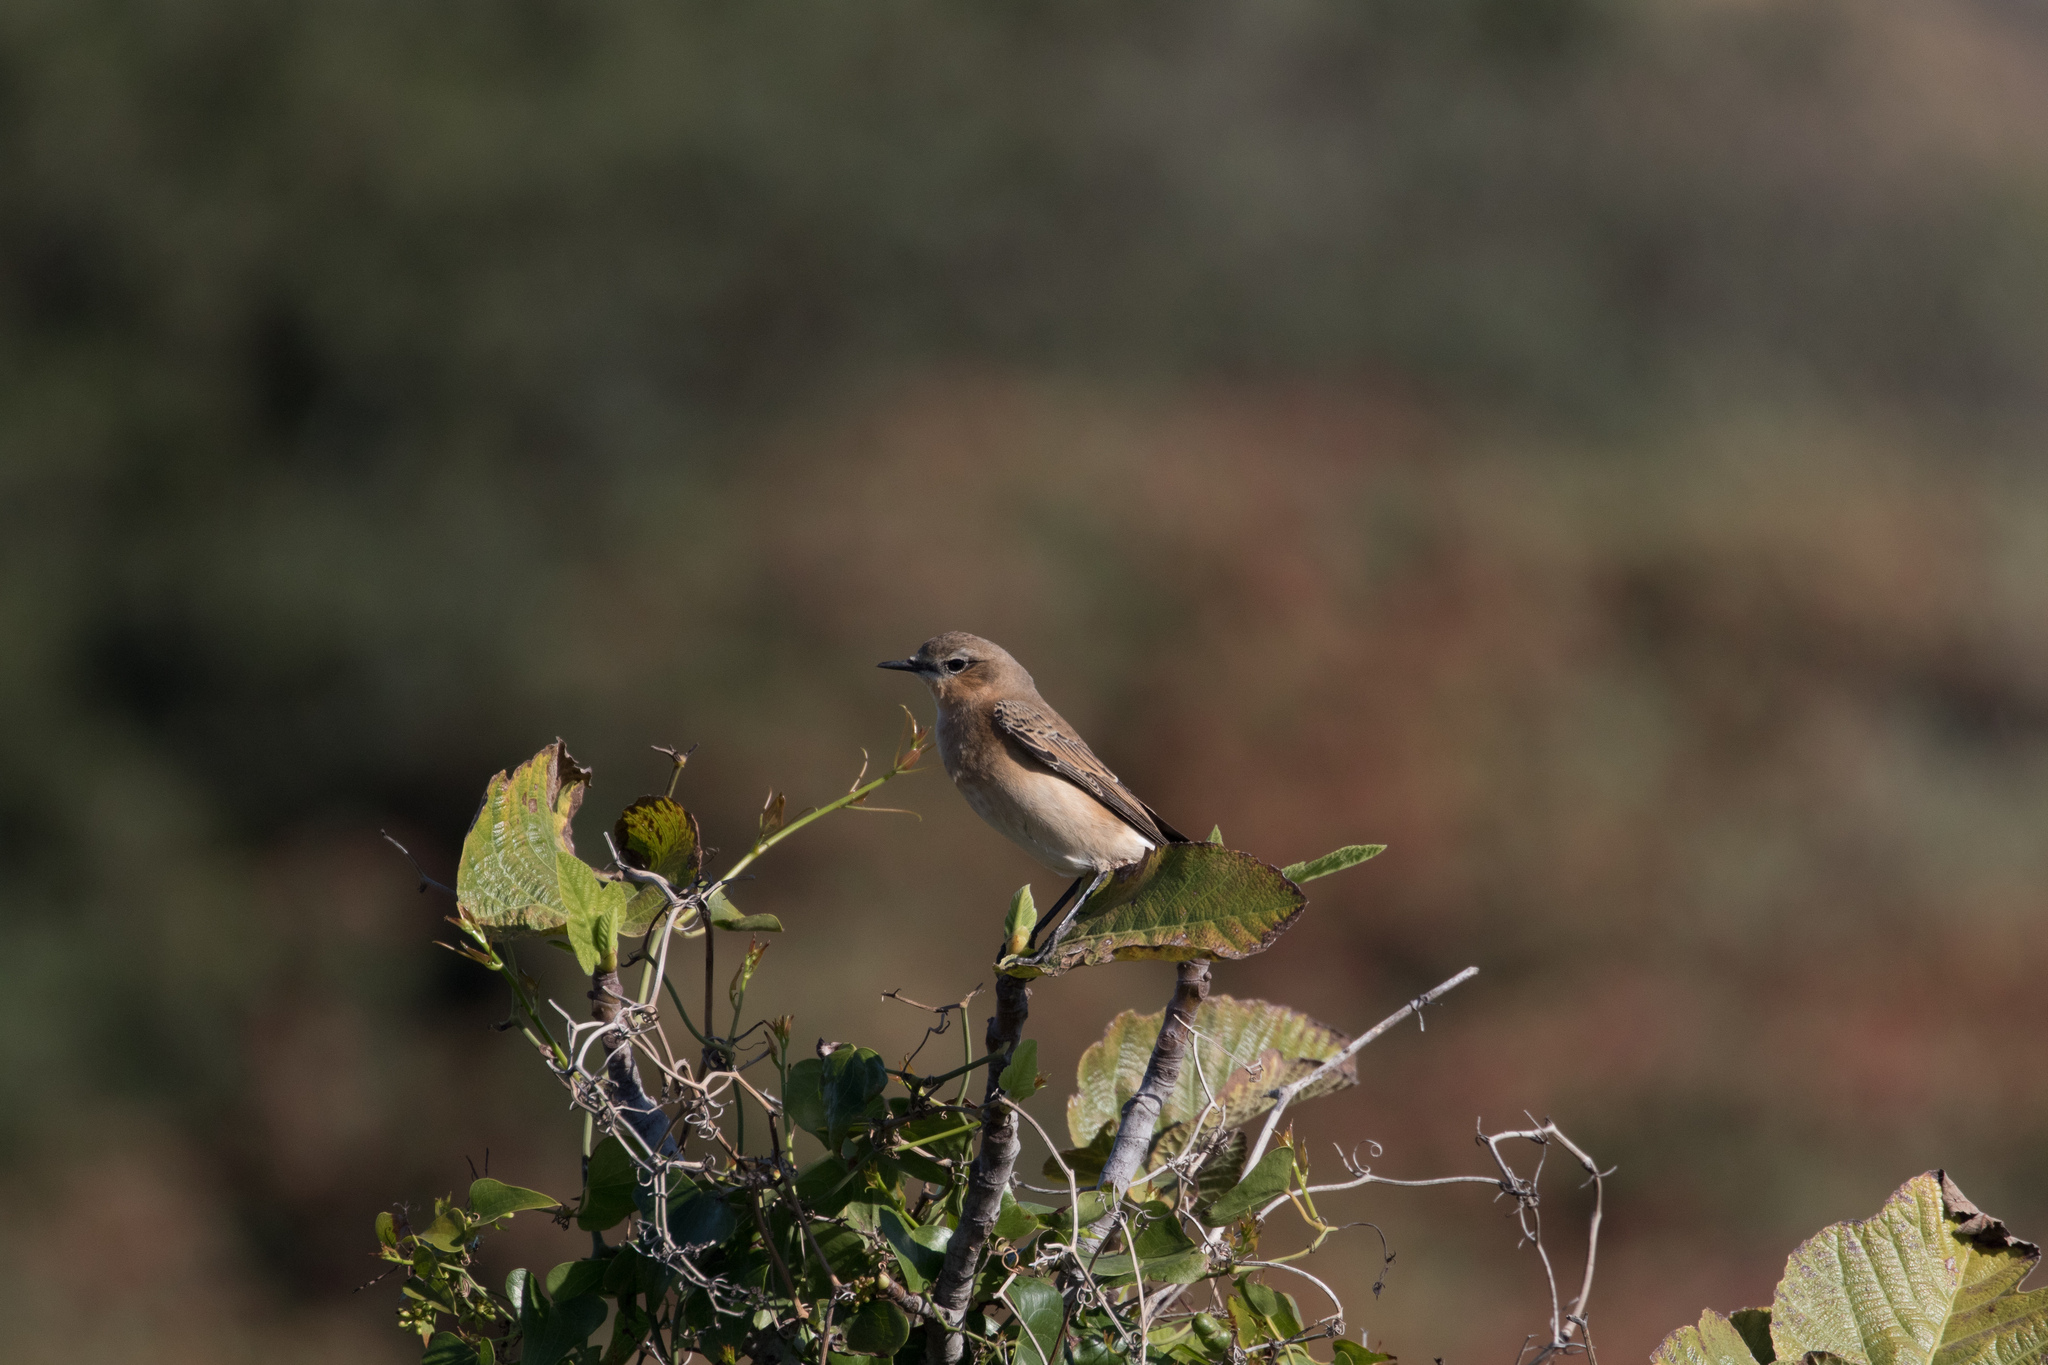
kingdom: Animalia
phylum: Chordata
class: Aves
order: Passeriformes
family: Muscicapidae
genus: Oenanthe
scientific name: Oenanthe oenanthe
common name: Northern wheatear
